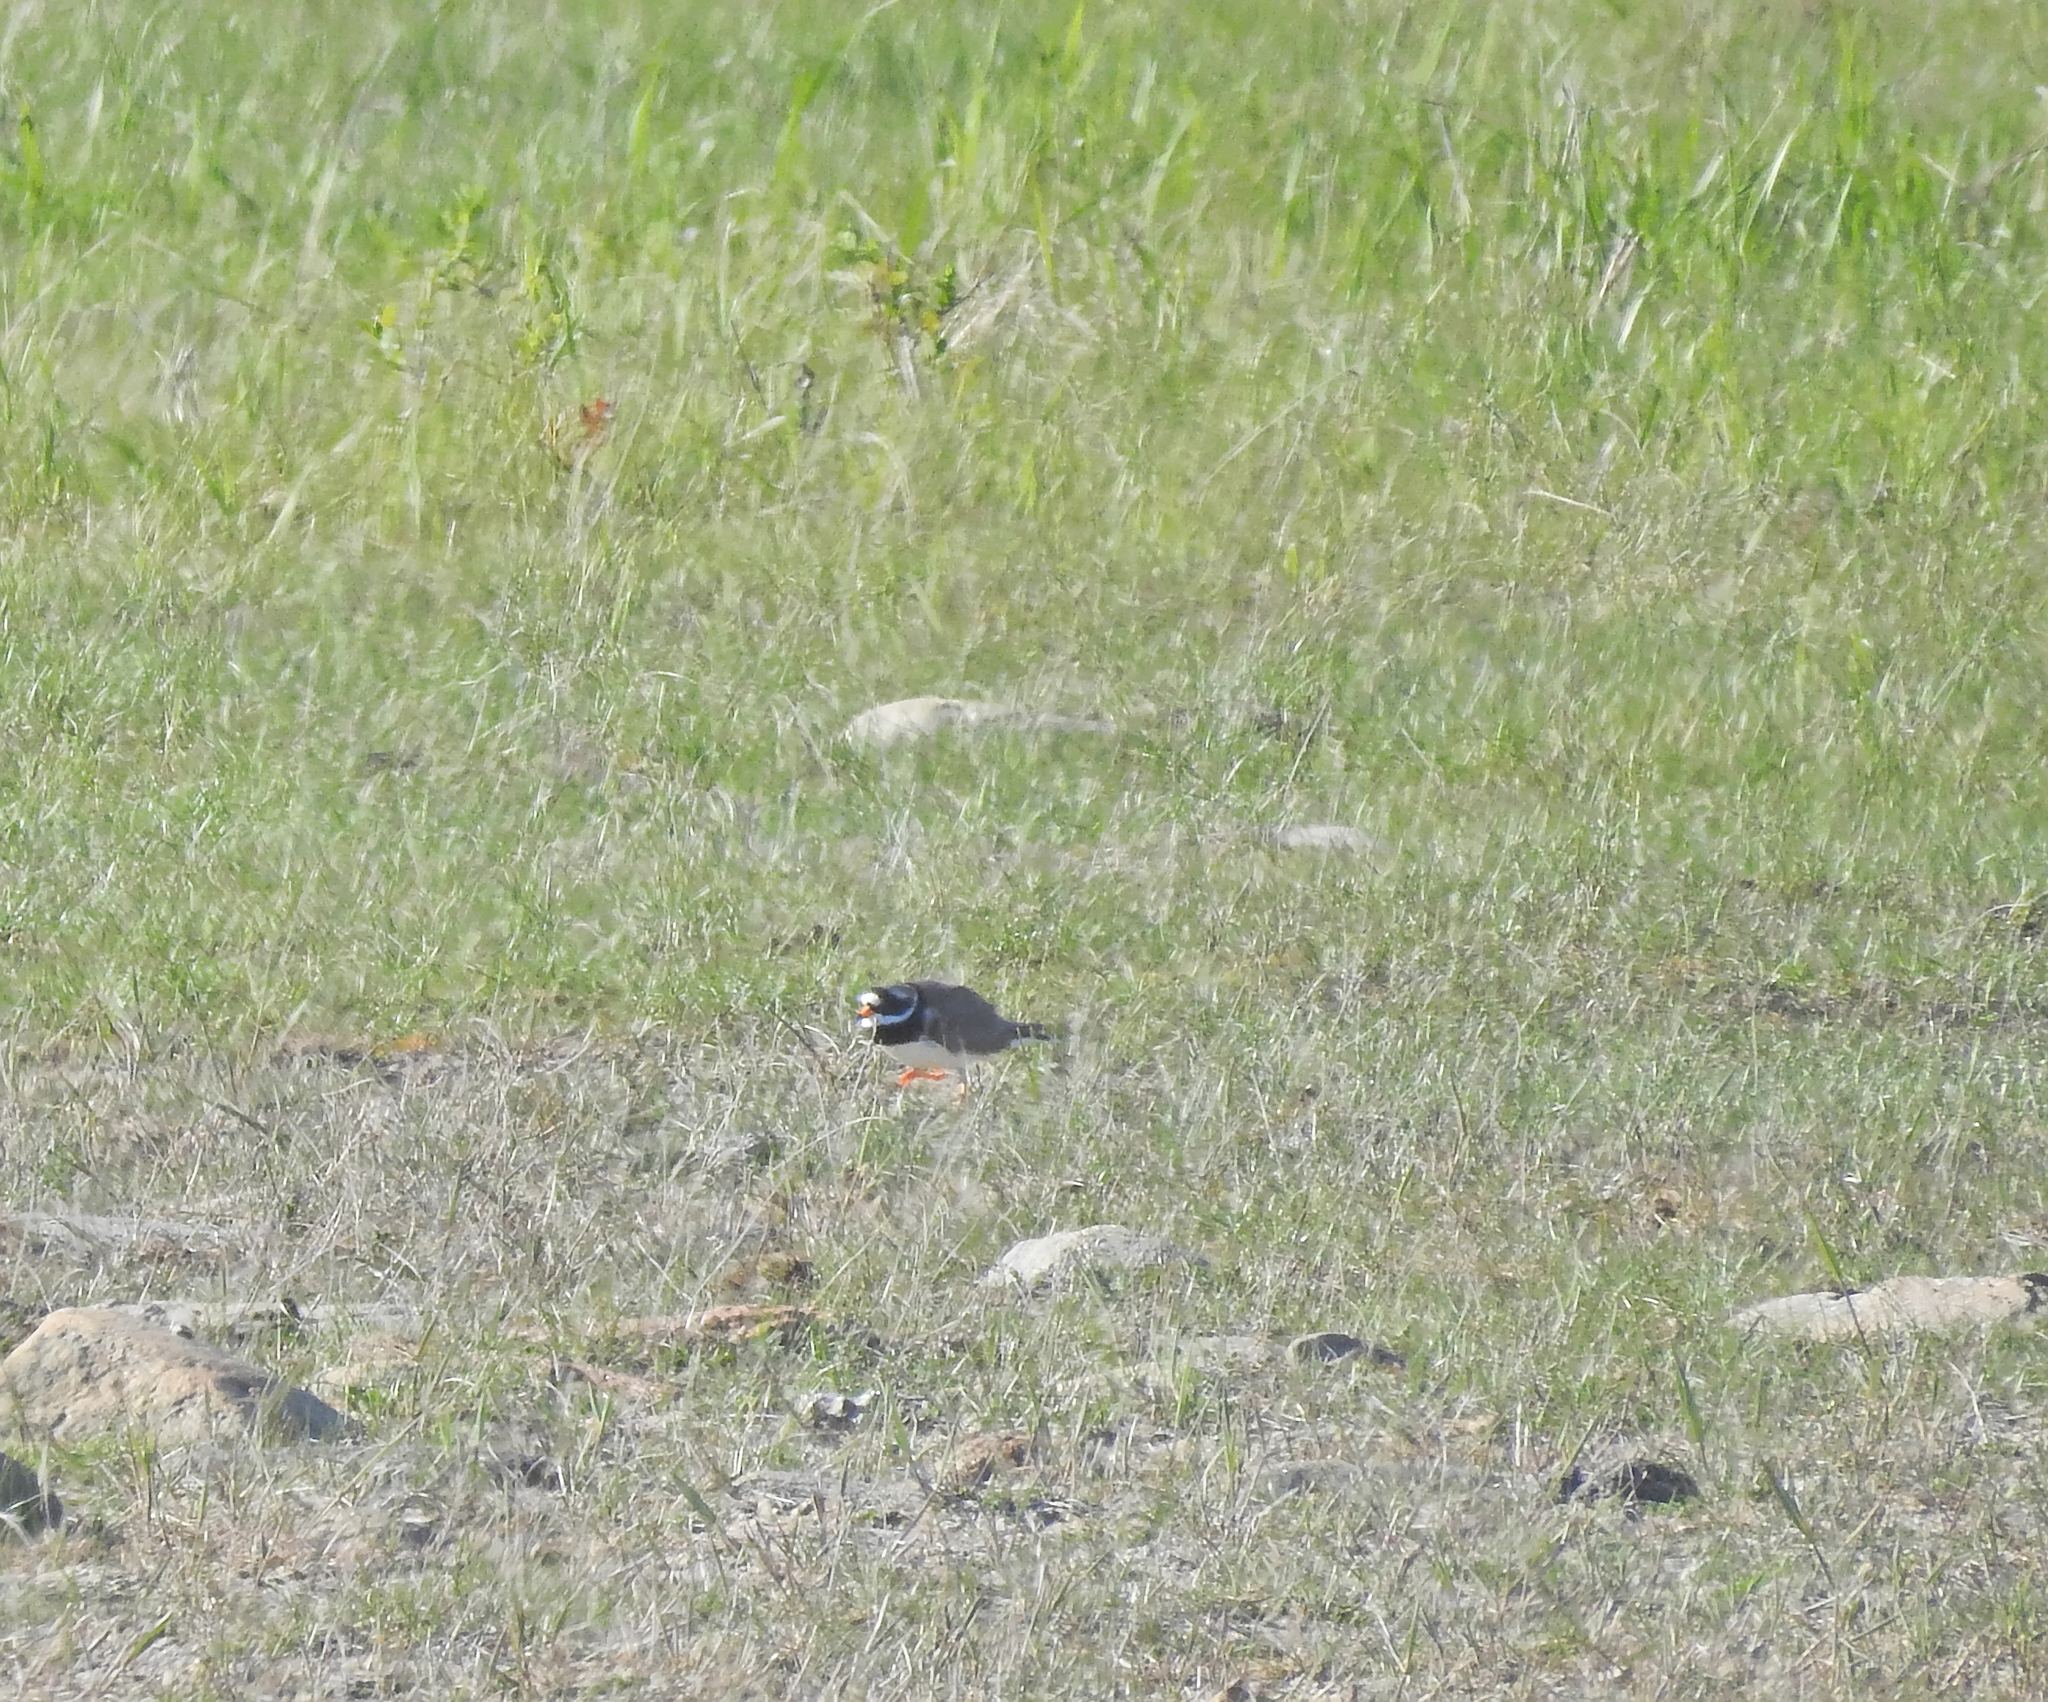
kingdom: Animalia
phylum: Chordata
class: Aves
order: Charadriiformes
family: Charadriidae
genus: Charadrius
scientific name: Charadrius hiaticula
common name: Common ringed plover
